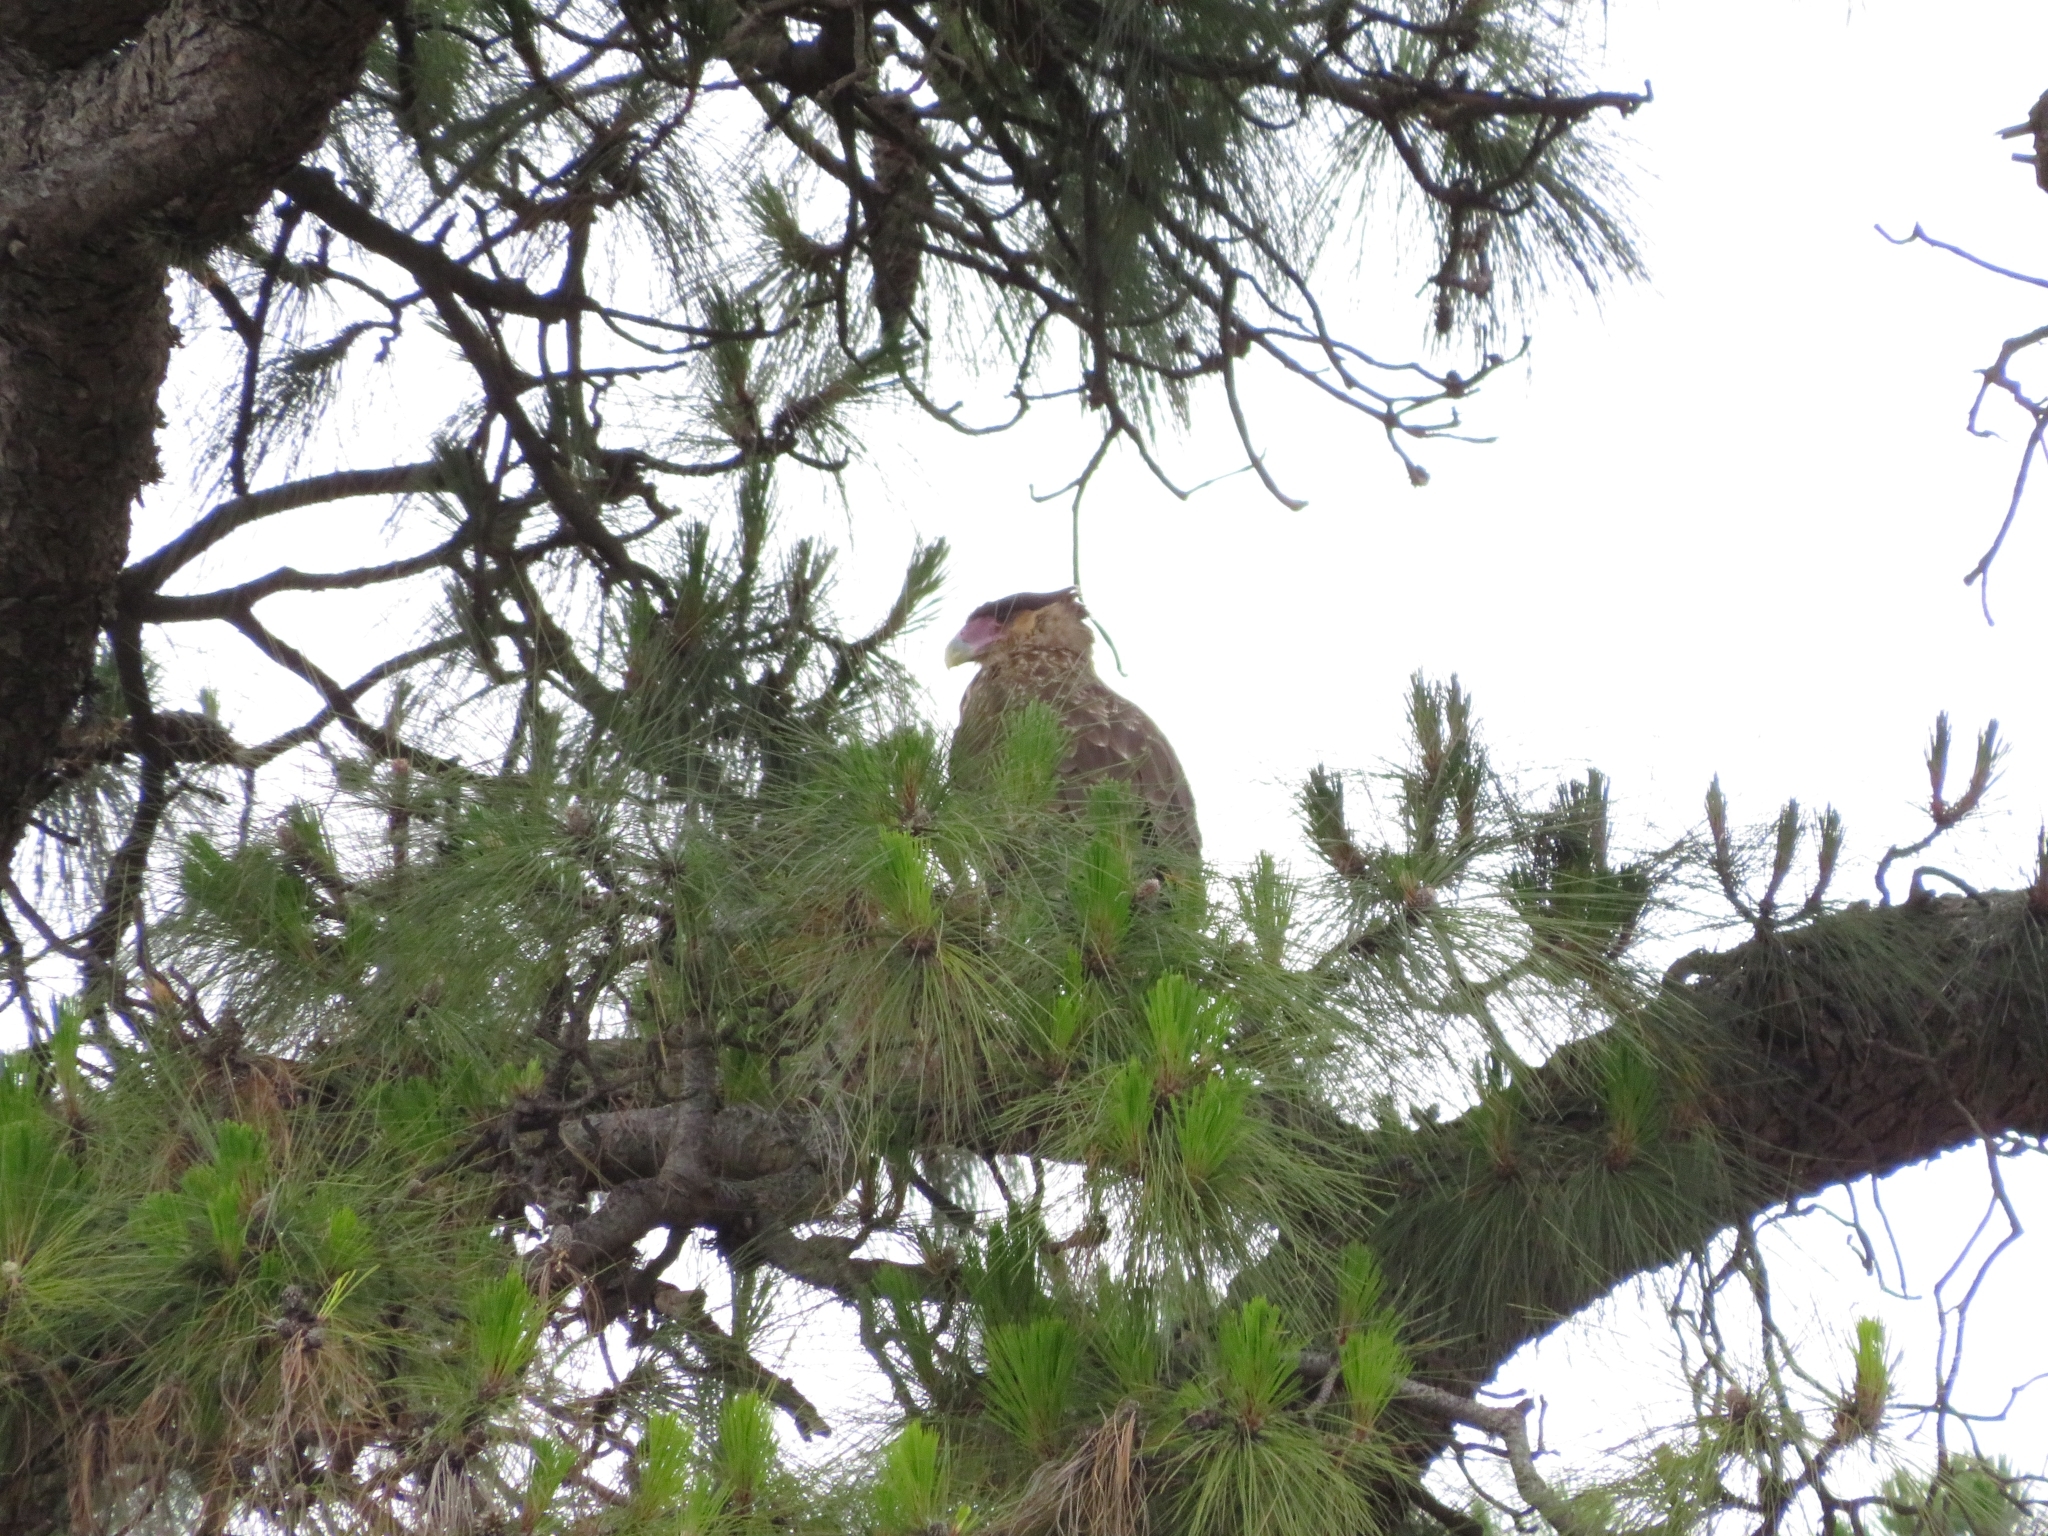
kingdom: Animalia
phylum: Chordata
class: Aves
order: Falconiformes
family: Falconidae
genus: Caracara
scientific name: Caracara plancus
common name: Southern caracara
